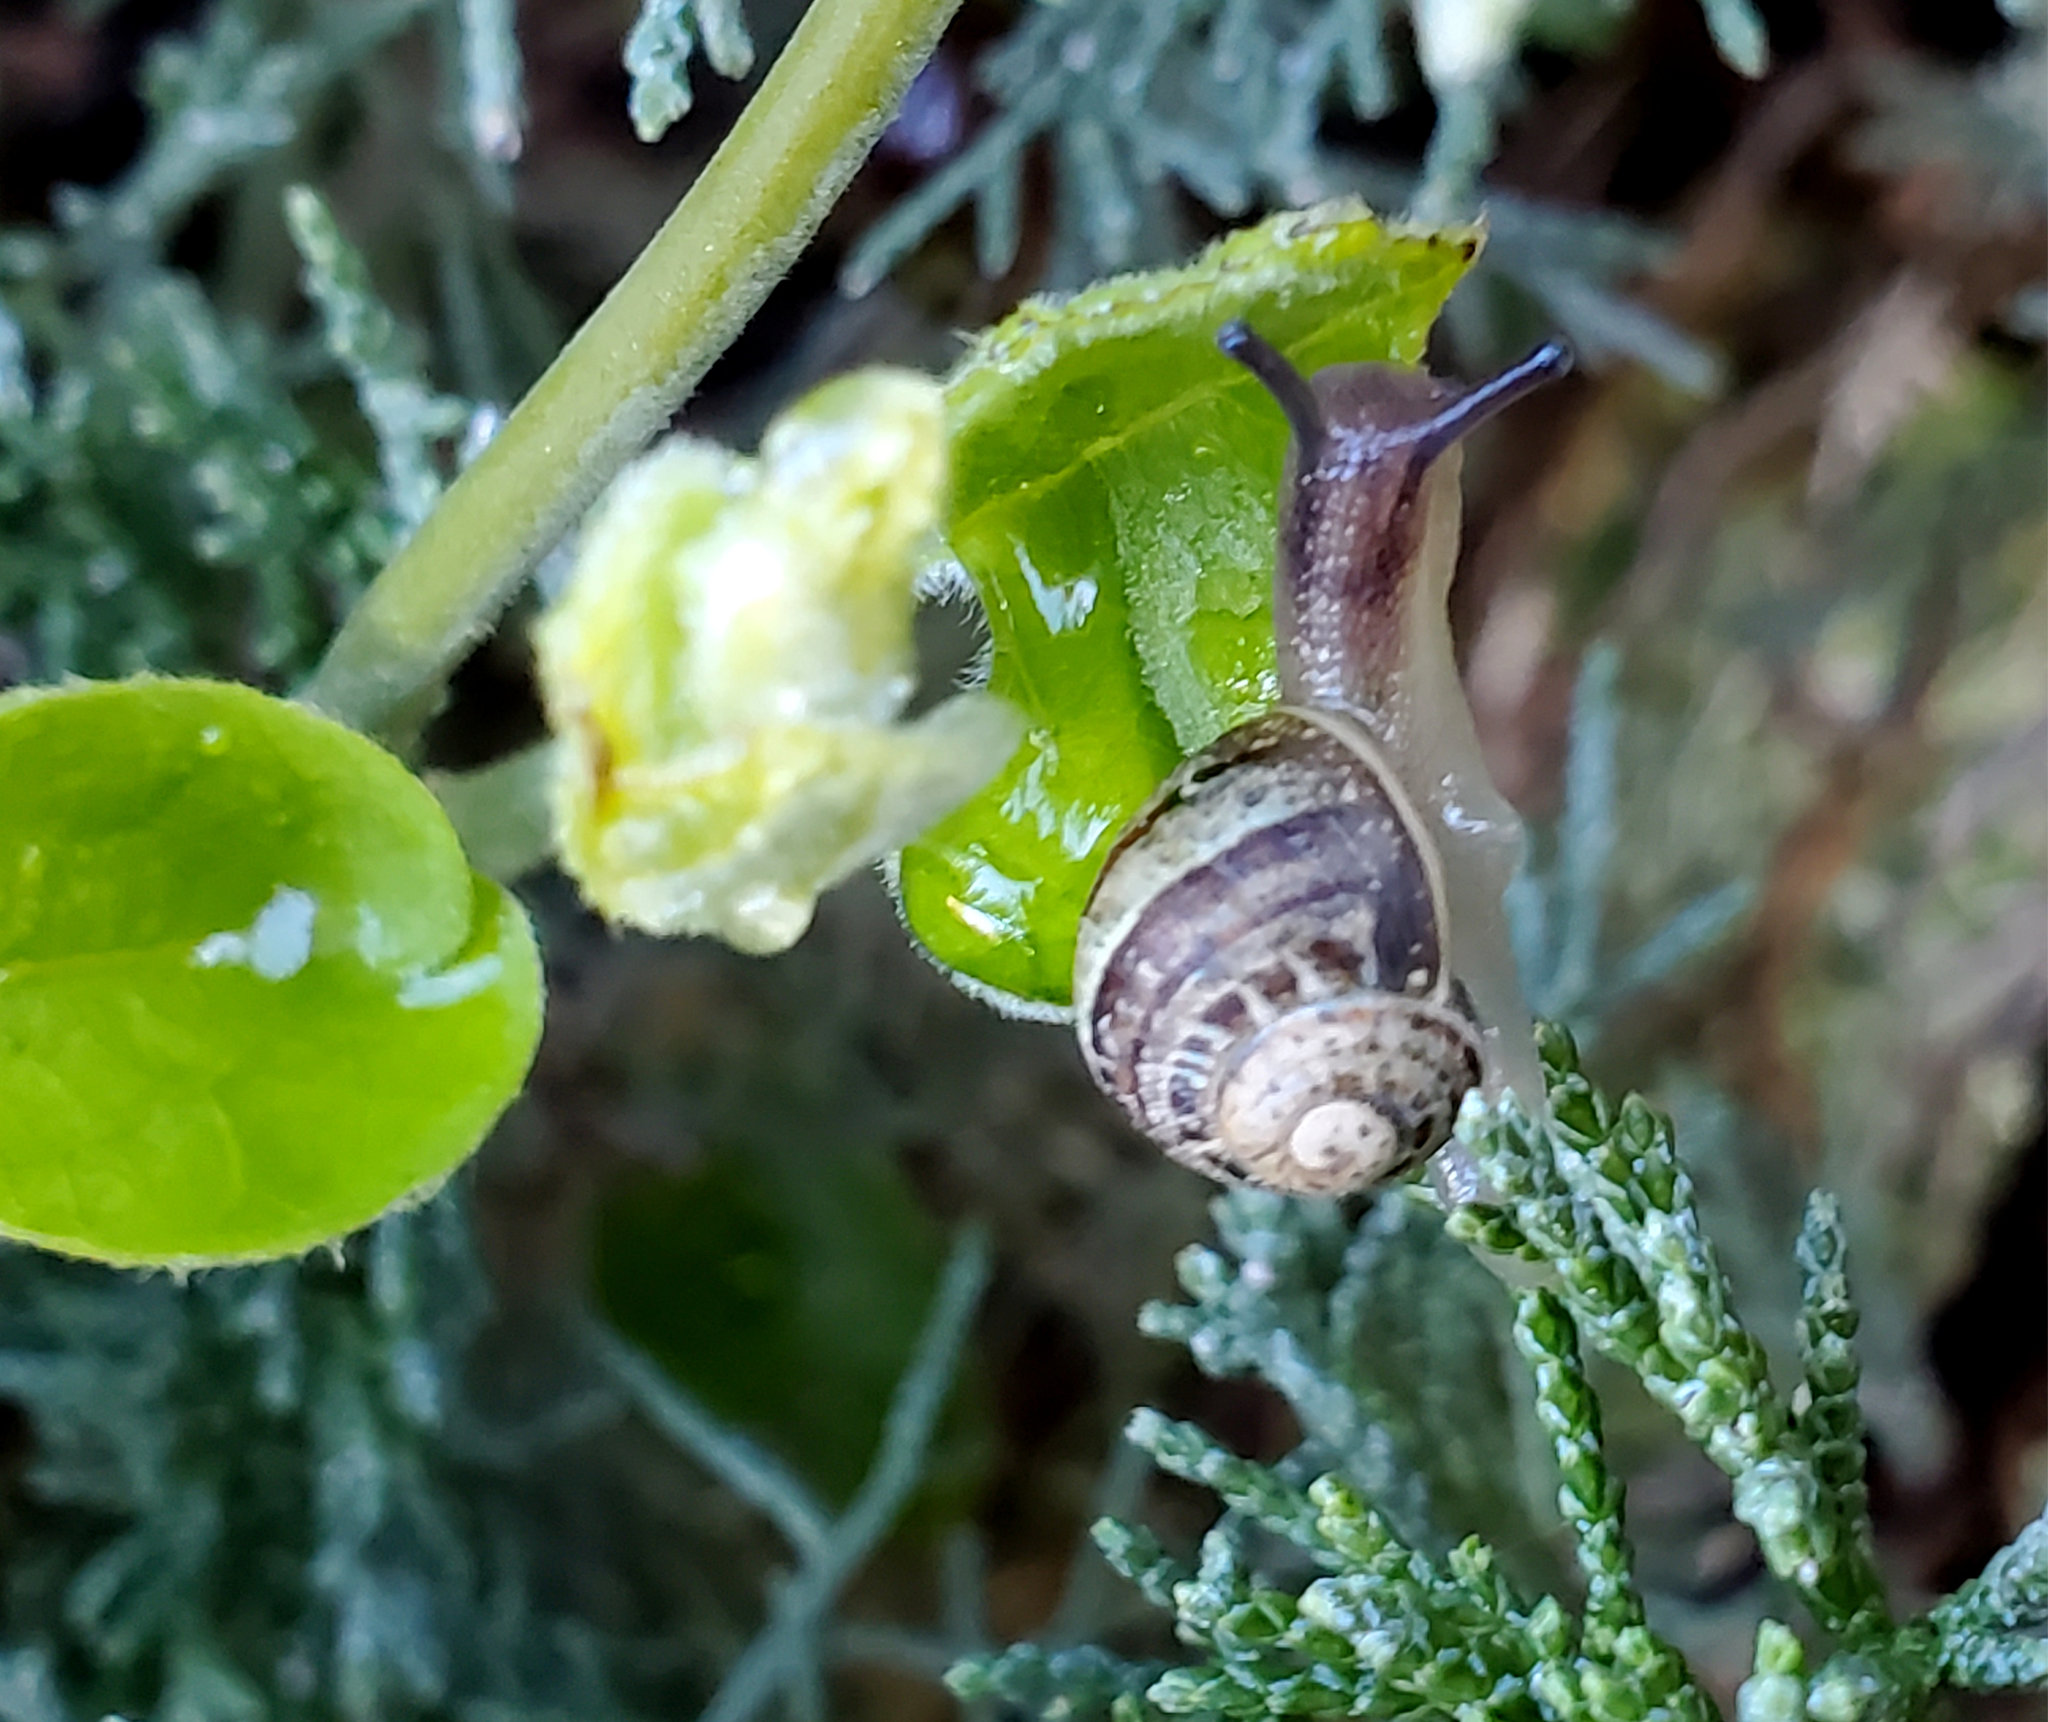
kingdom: Animalia
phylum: Mollusca
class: Gastropoda
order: Stylommatophora
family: Helicidae
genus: Cornu
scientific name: Cornu aspersum
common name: Brown garden snail
